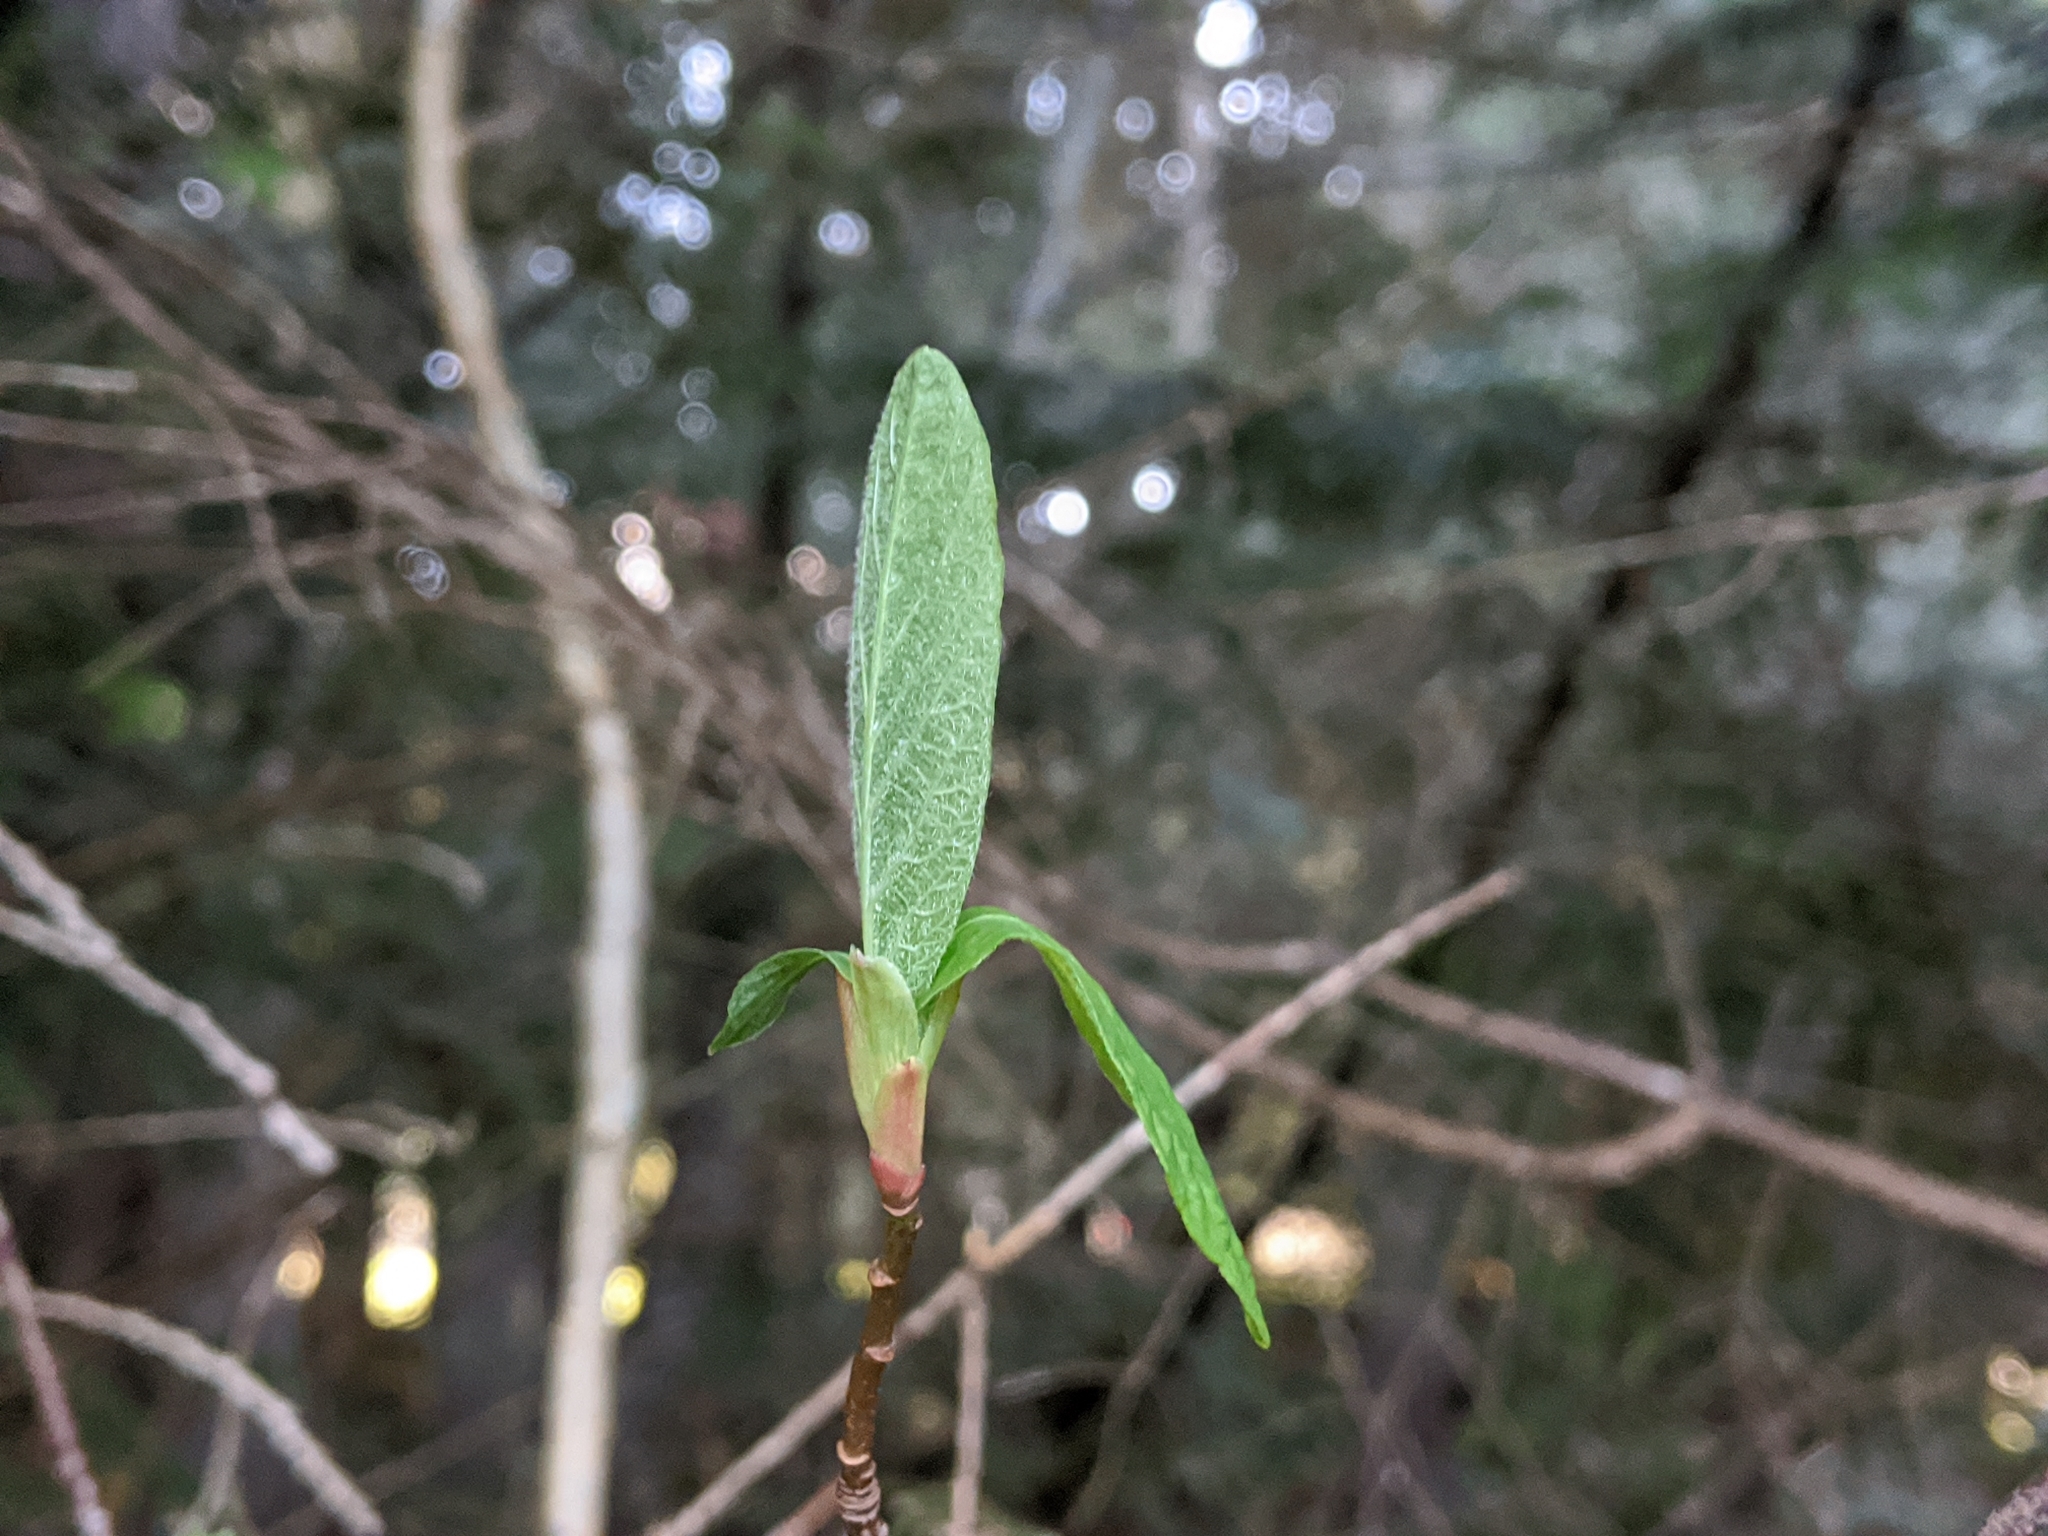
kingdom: Plantae
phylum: Tracheophyta
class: Magnoliopsida
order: Rosales
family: Rosaceae
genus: Oemleria
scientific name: Oemleria cerasiformis
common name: Osoberry
